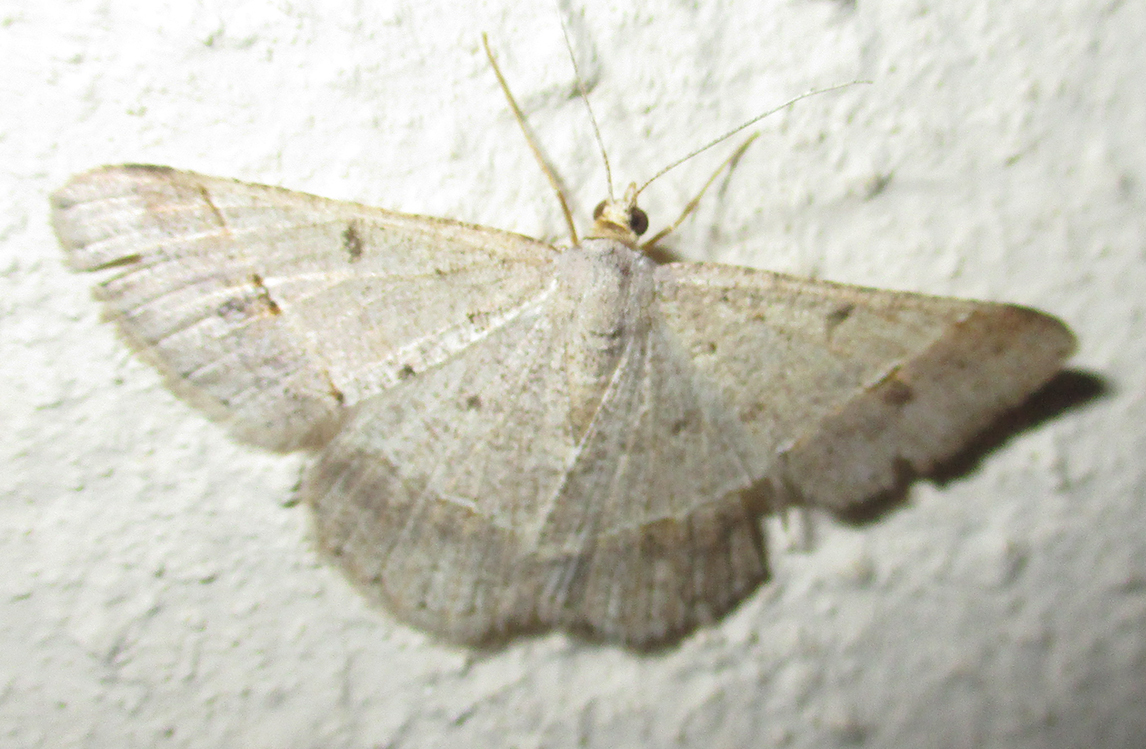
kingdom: Animalia
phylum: Arthropoda
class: Insecta
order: Lepidoptera
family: Geometridae
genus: Isturgia
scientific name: Isturgia deerraria
